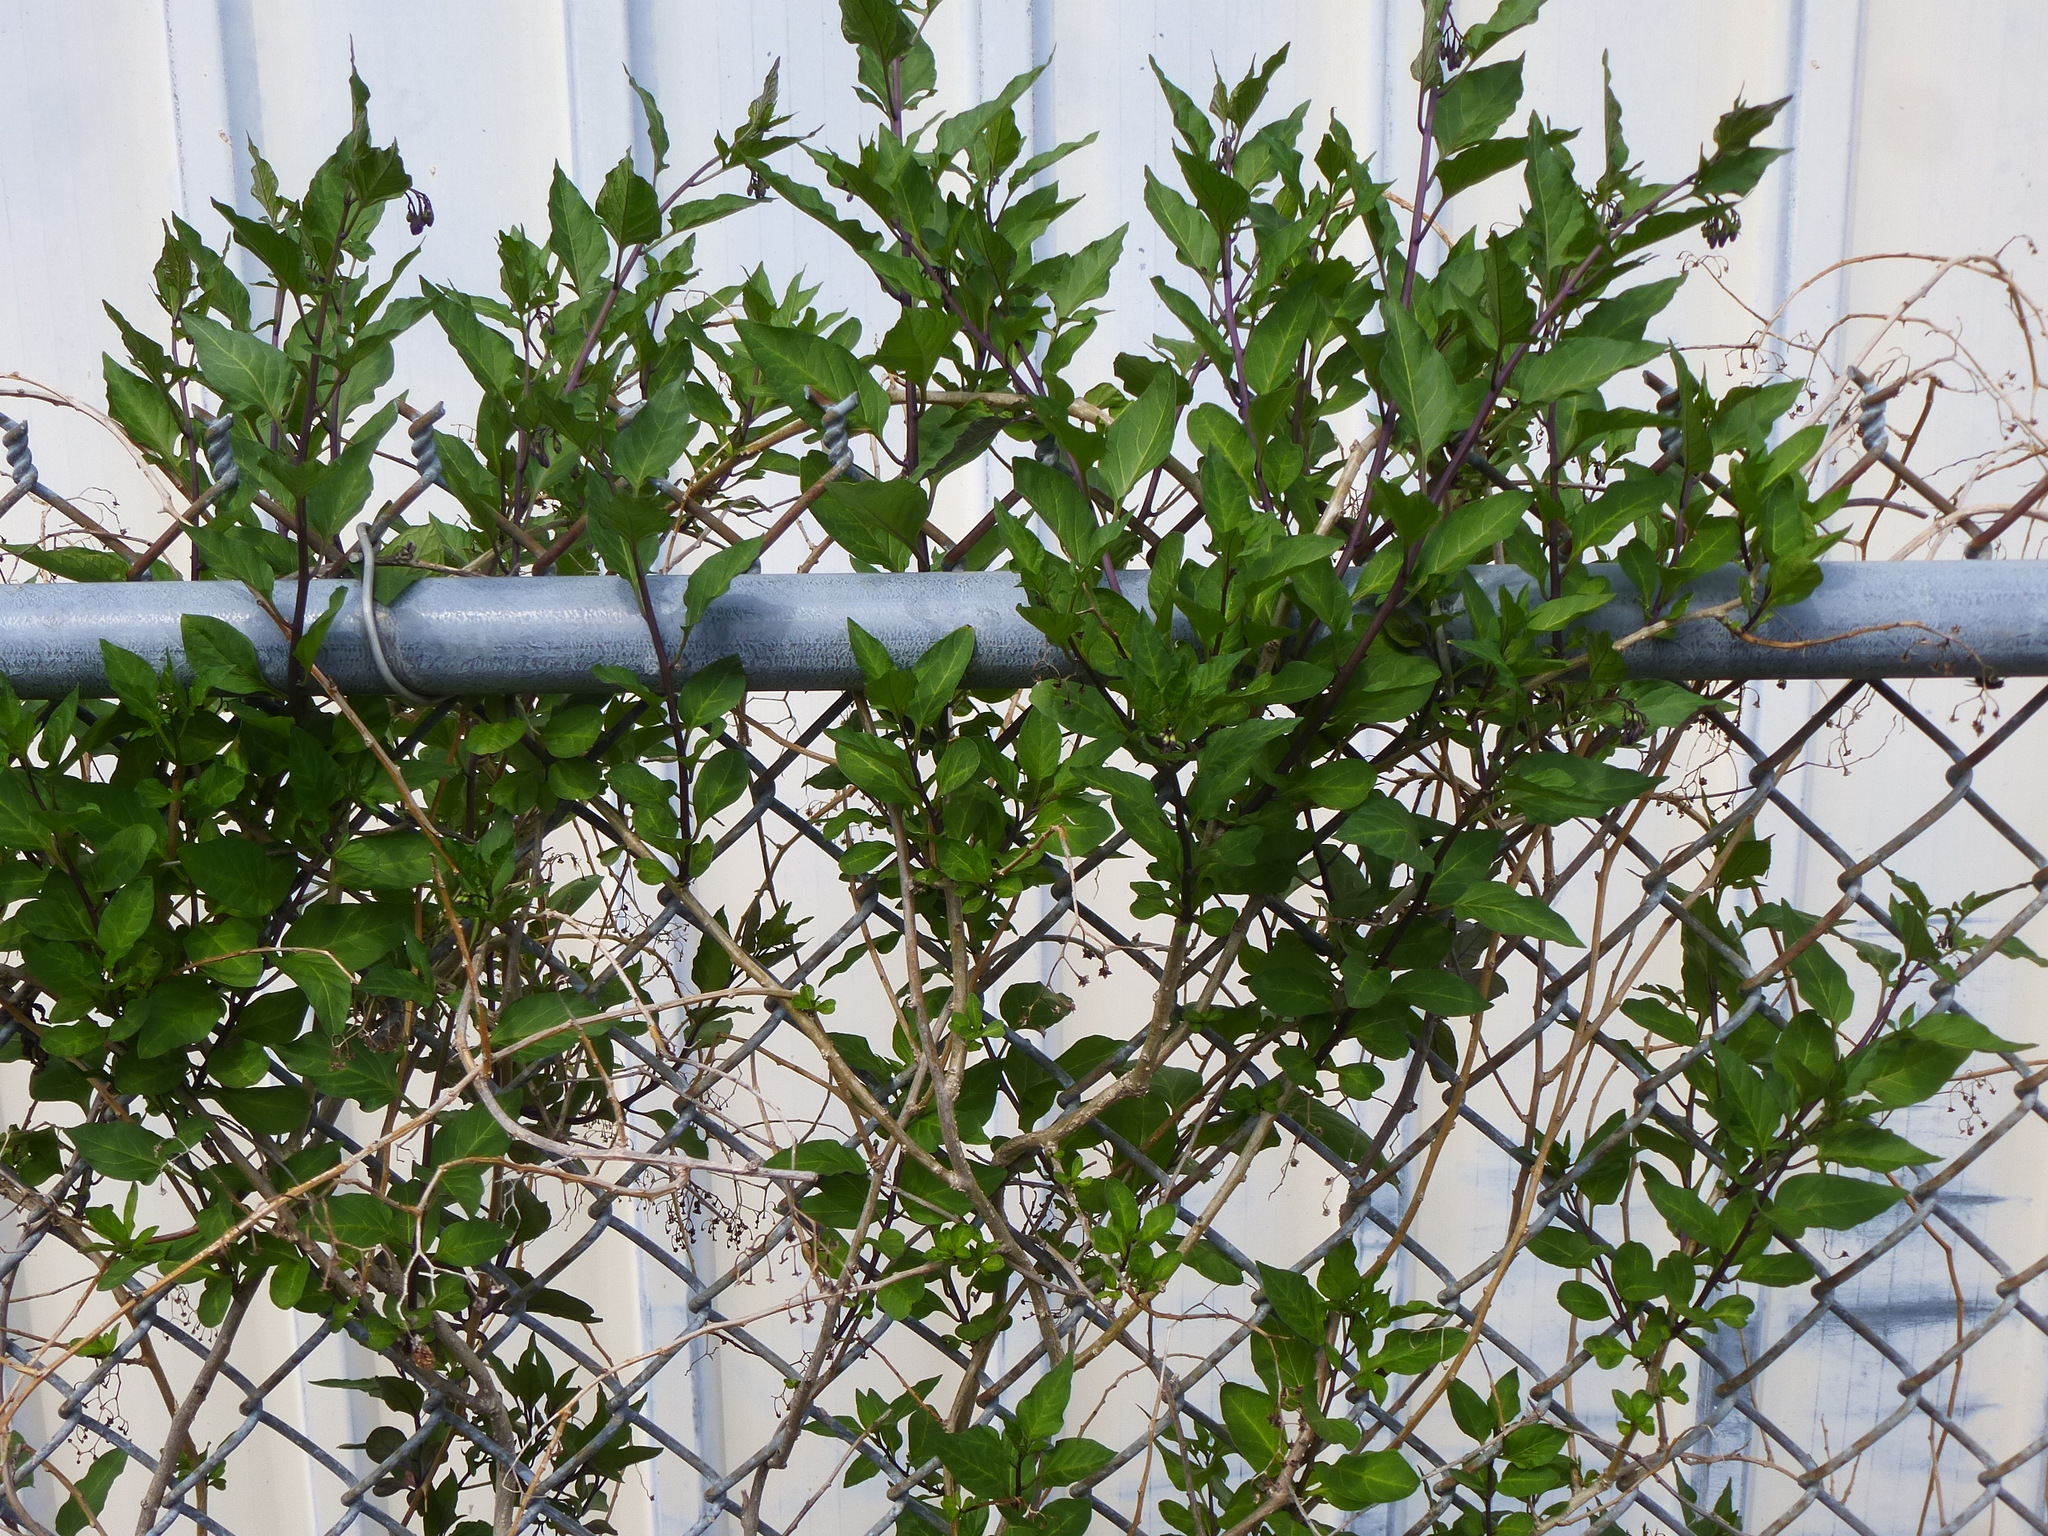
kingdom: Plantae
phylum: Tracheophyta
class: Magnoliopsida
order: Solanales
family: Solanaceae
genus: Solanum
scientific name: Solanum dulcamara
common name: Climbing nightshade
